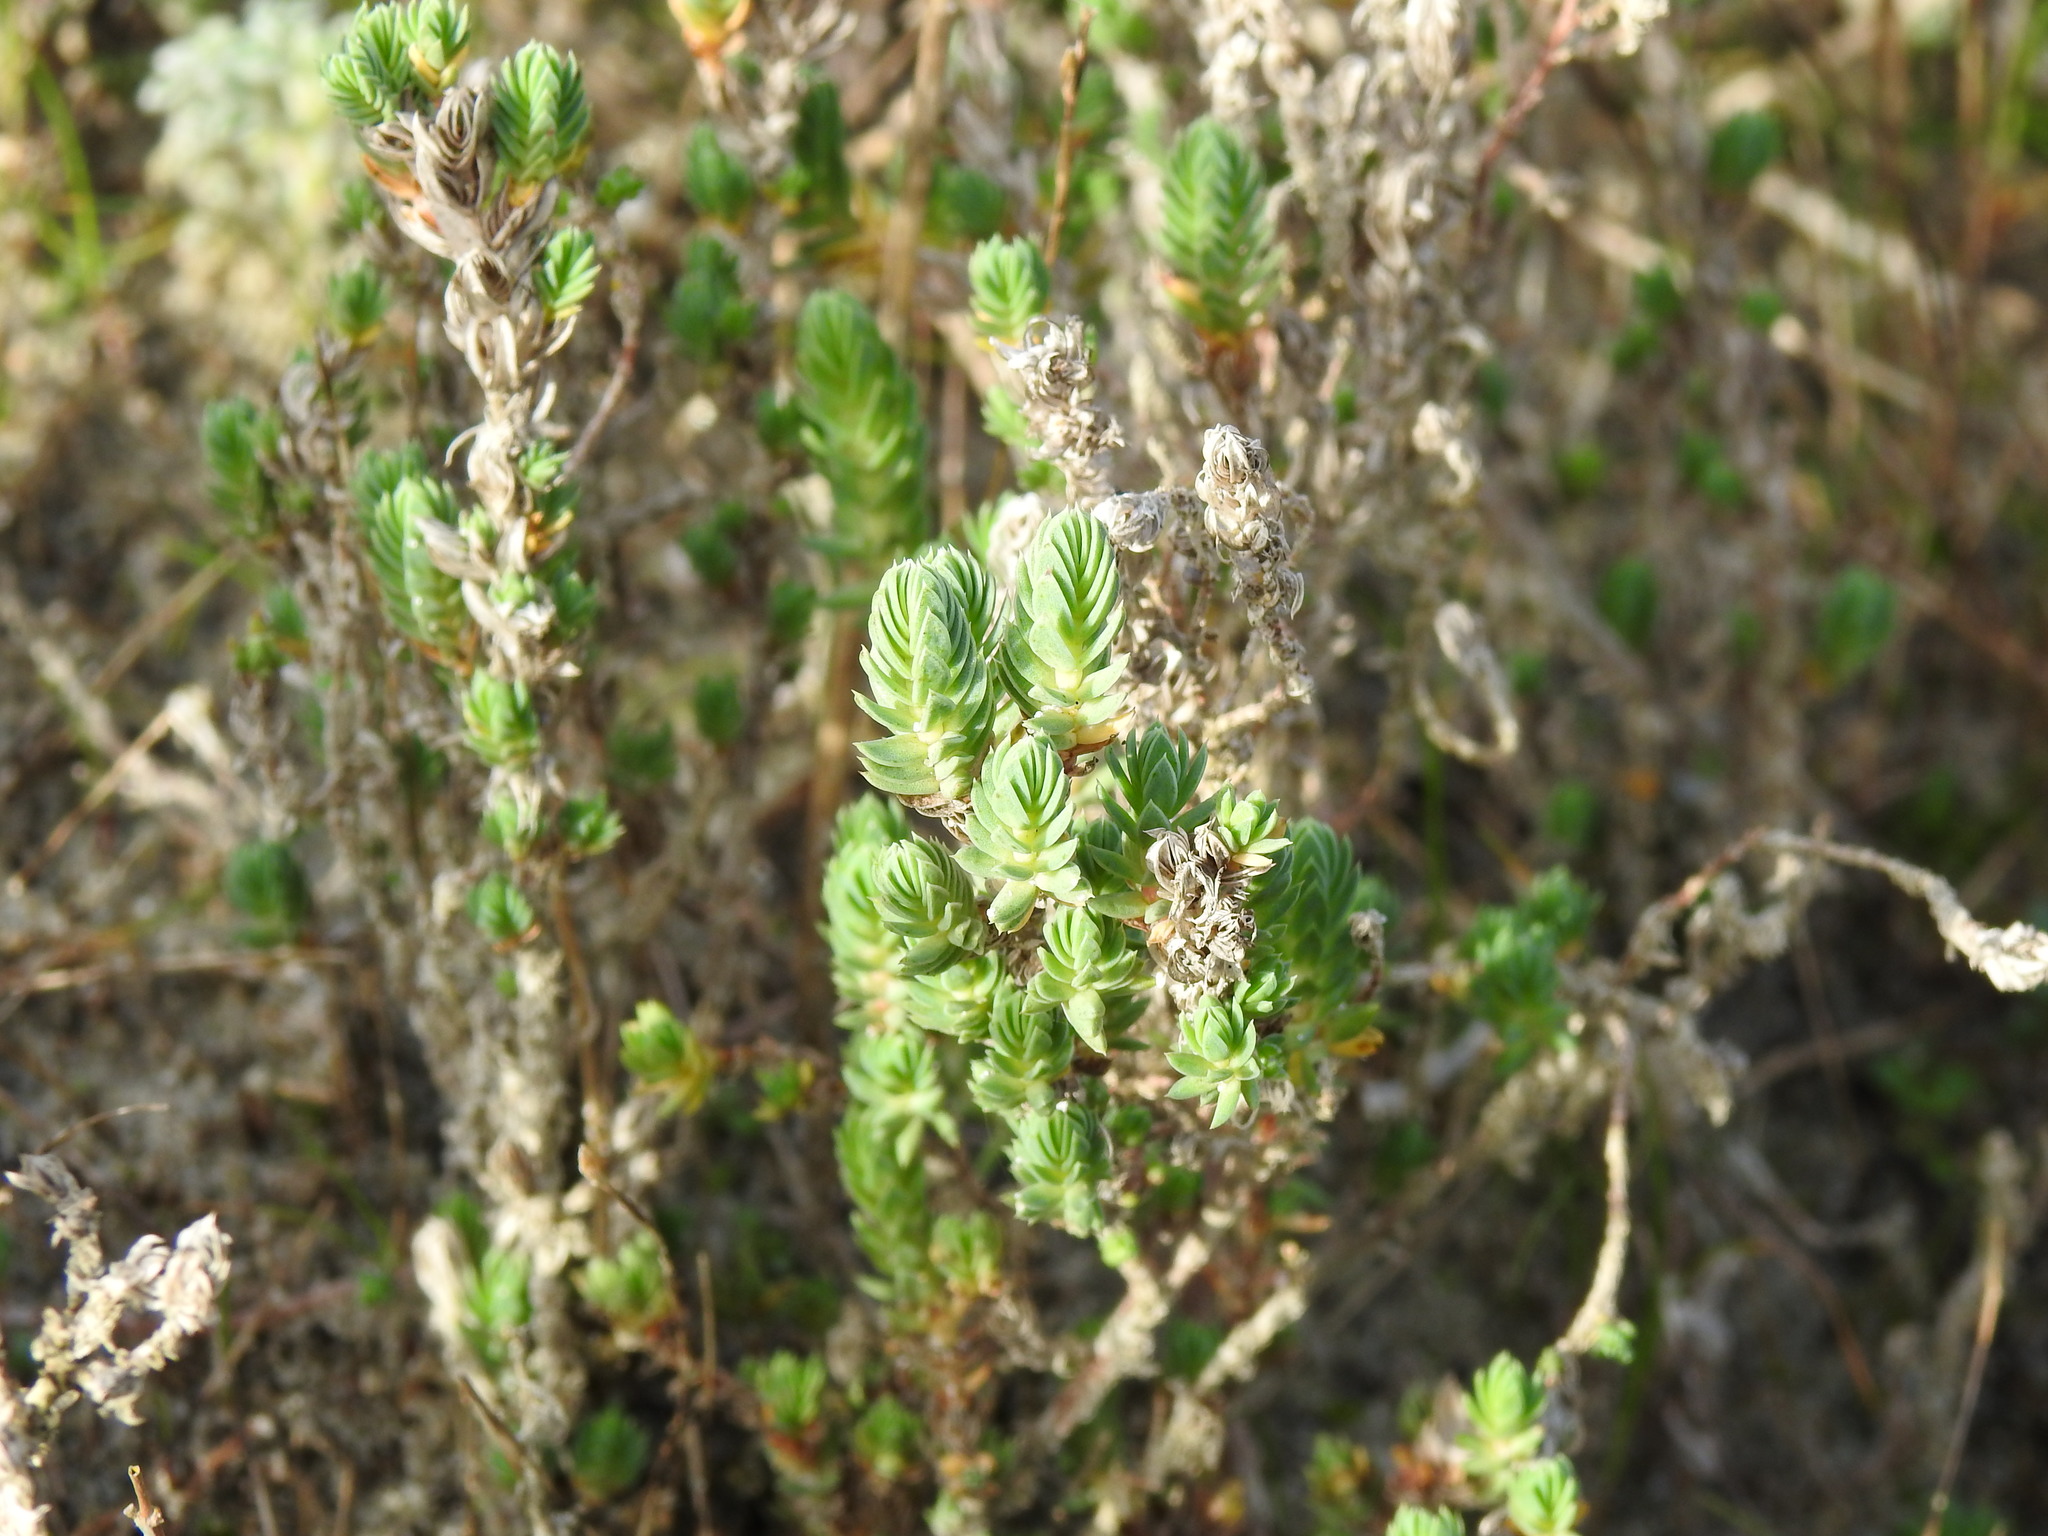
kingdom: Plantae
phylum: Tracheophyta
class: Magnoliopsida
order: Gentianales
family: Rubiaceae
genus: Crucianella
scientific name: Crucianella maritima
